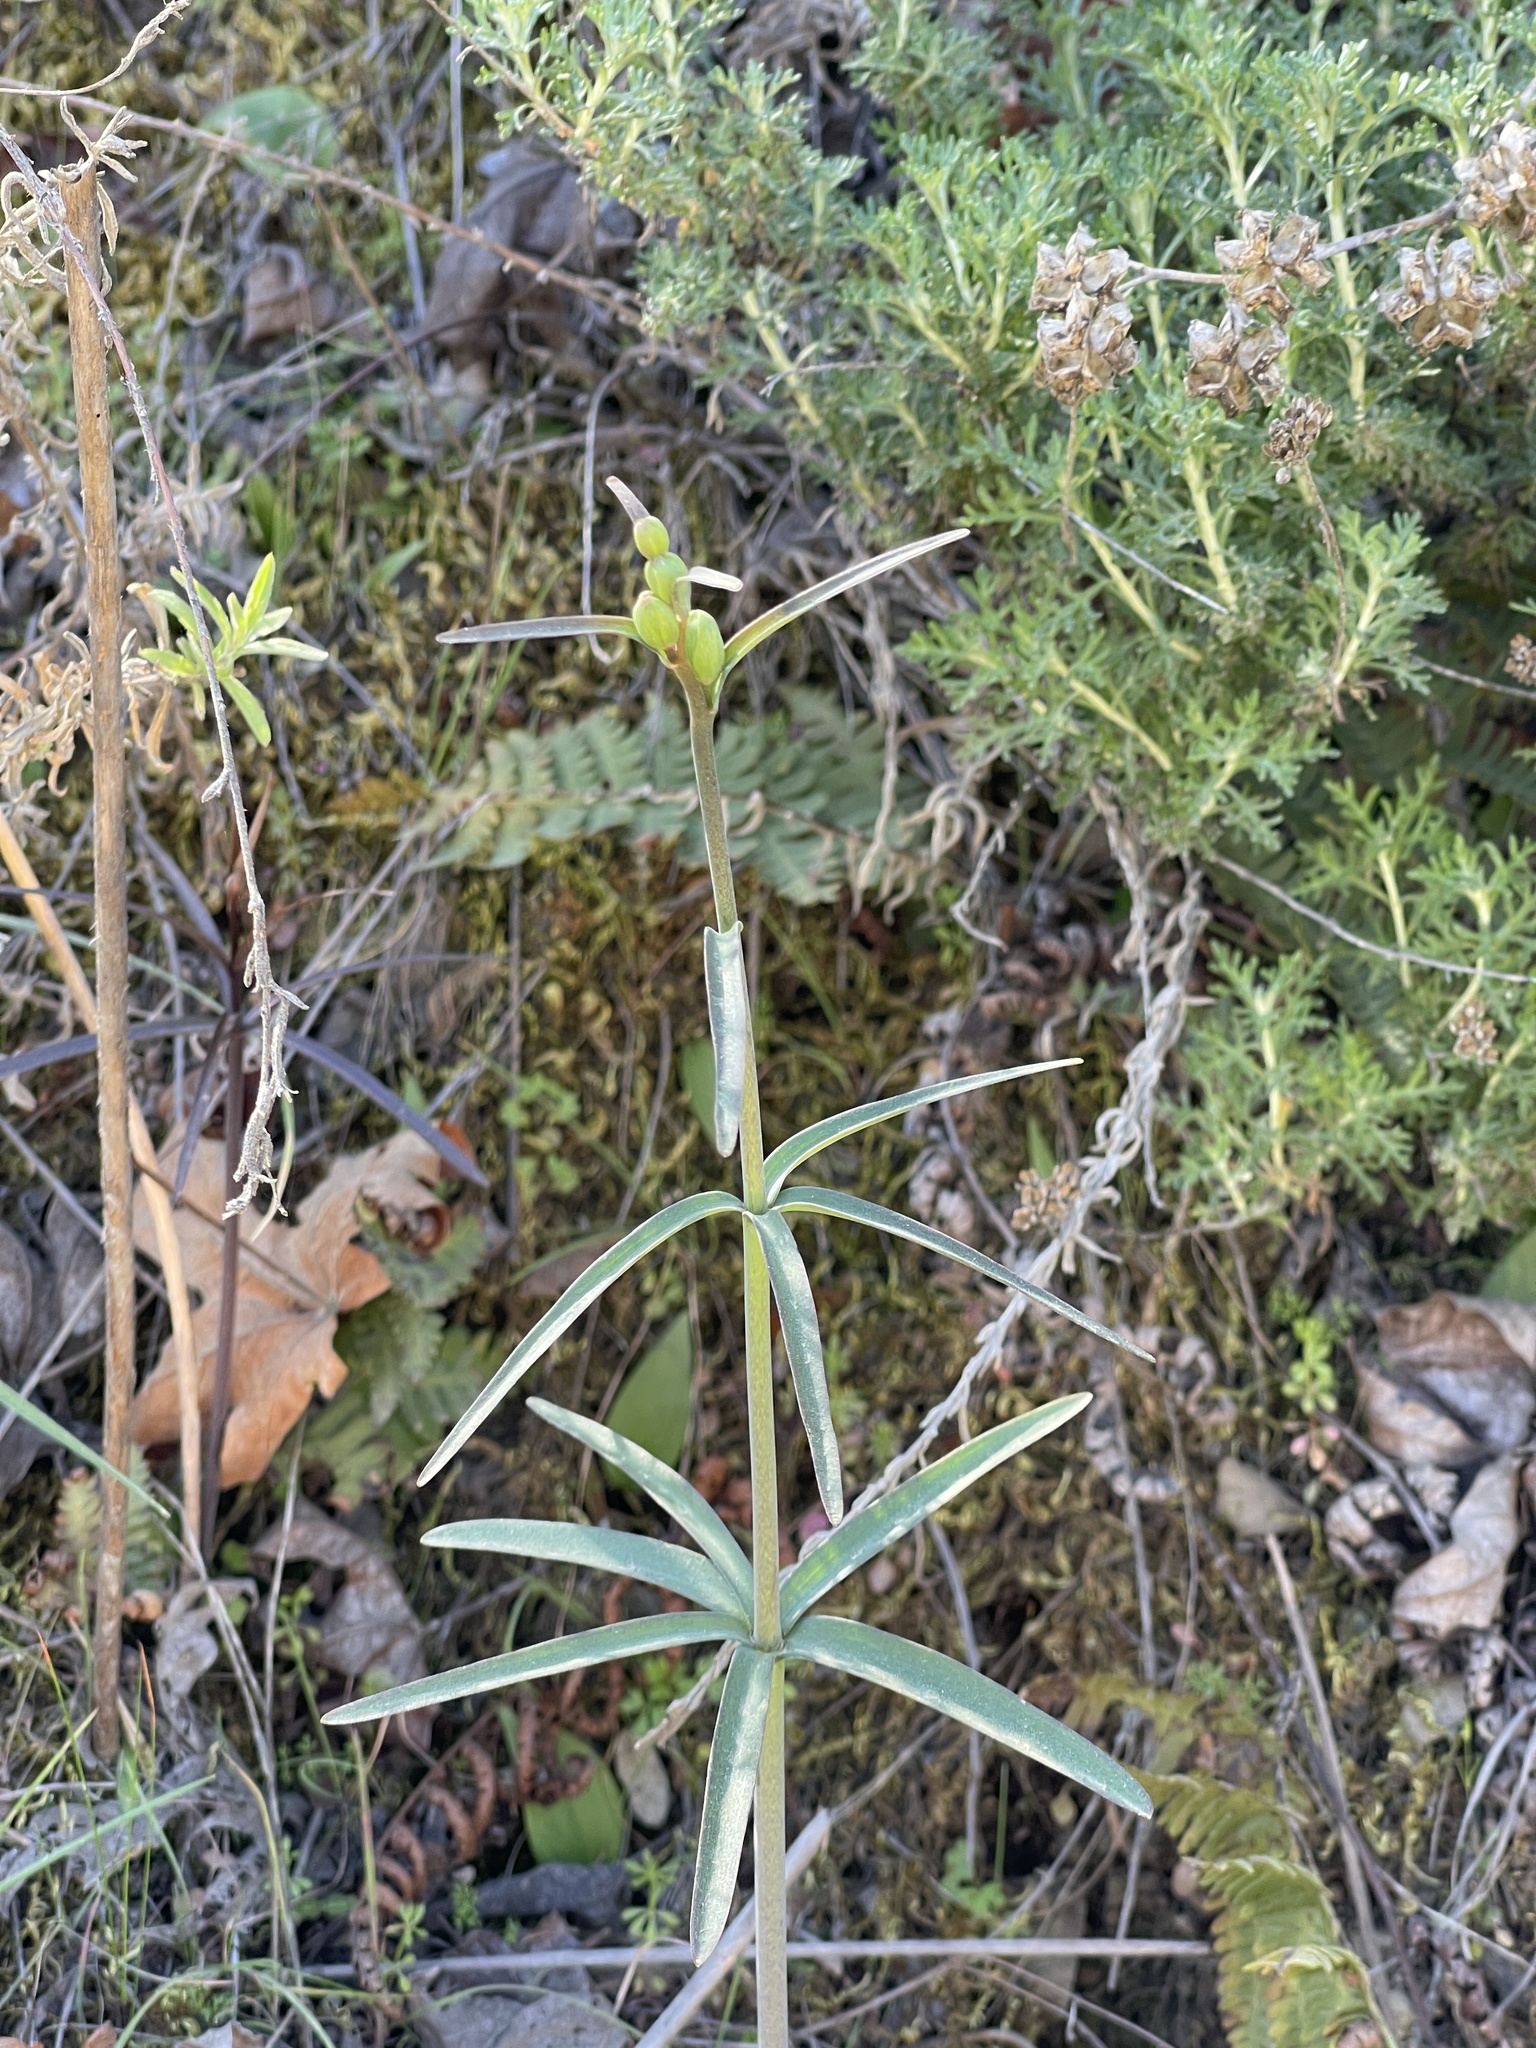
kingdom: Plantae
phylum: Tracheophyta
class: Liliopsida
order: Liliales
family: Liliaceae
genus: Fritillaria
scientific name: Fritillaria ojaiensis
